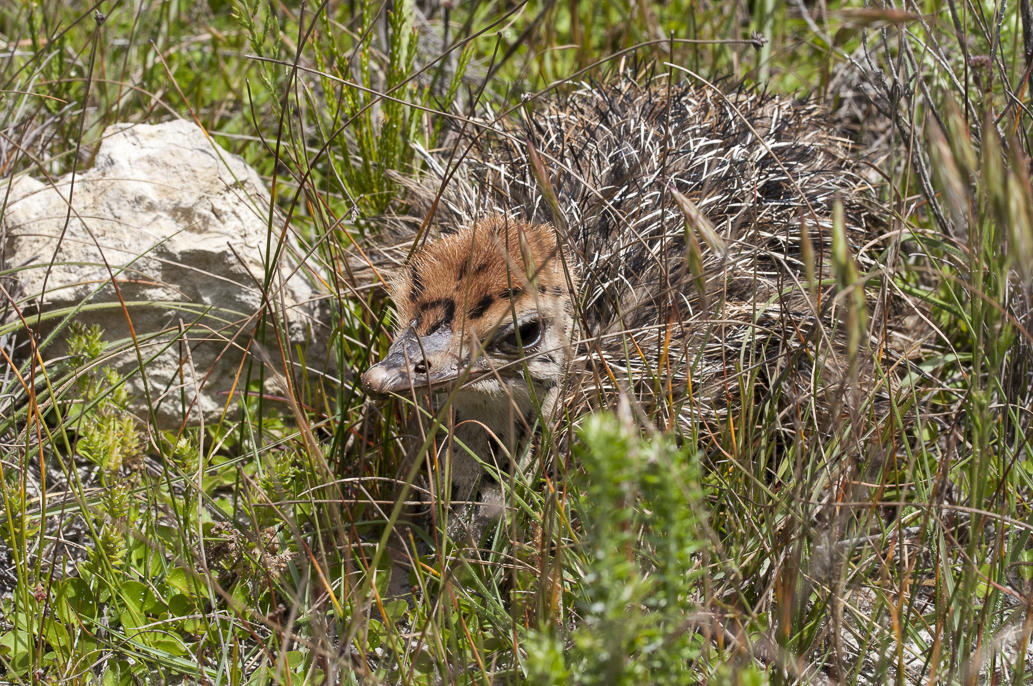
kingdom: Animalia
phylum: Chordata
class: Aves
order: Struthioniformes
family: Struthionidae
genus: Struthio
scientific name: Struthio camelus
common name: Common ostrich
